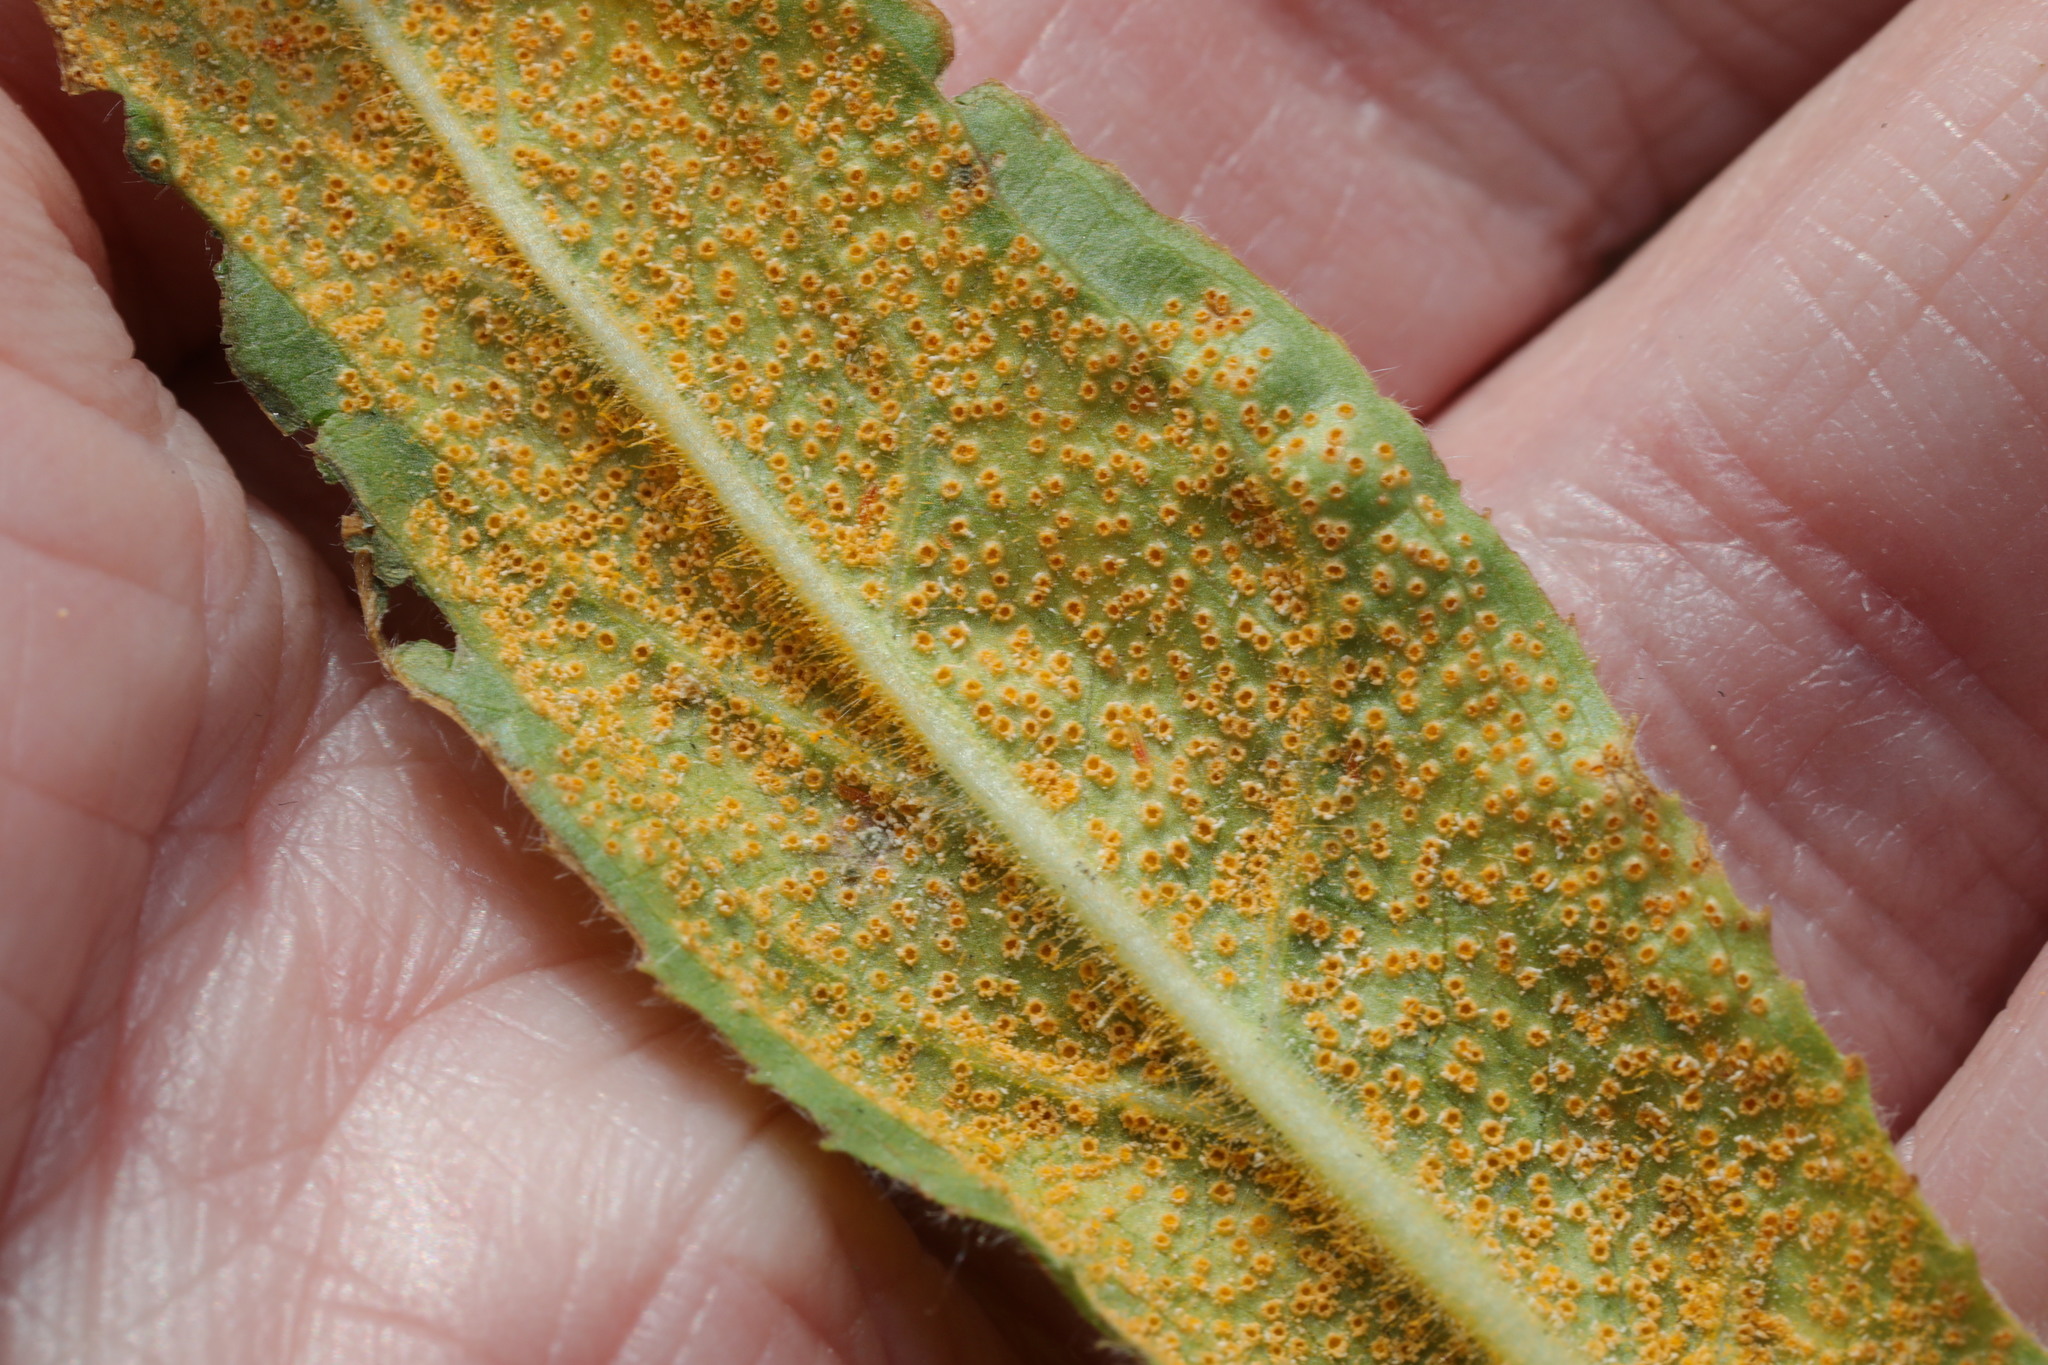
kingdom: Fungi
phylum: Basidiomycota
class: Pucciniomycetes
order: Pucciniales
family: Pucciniaceae
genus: Puccinia
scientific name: Puccinia pulverulenta
